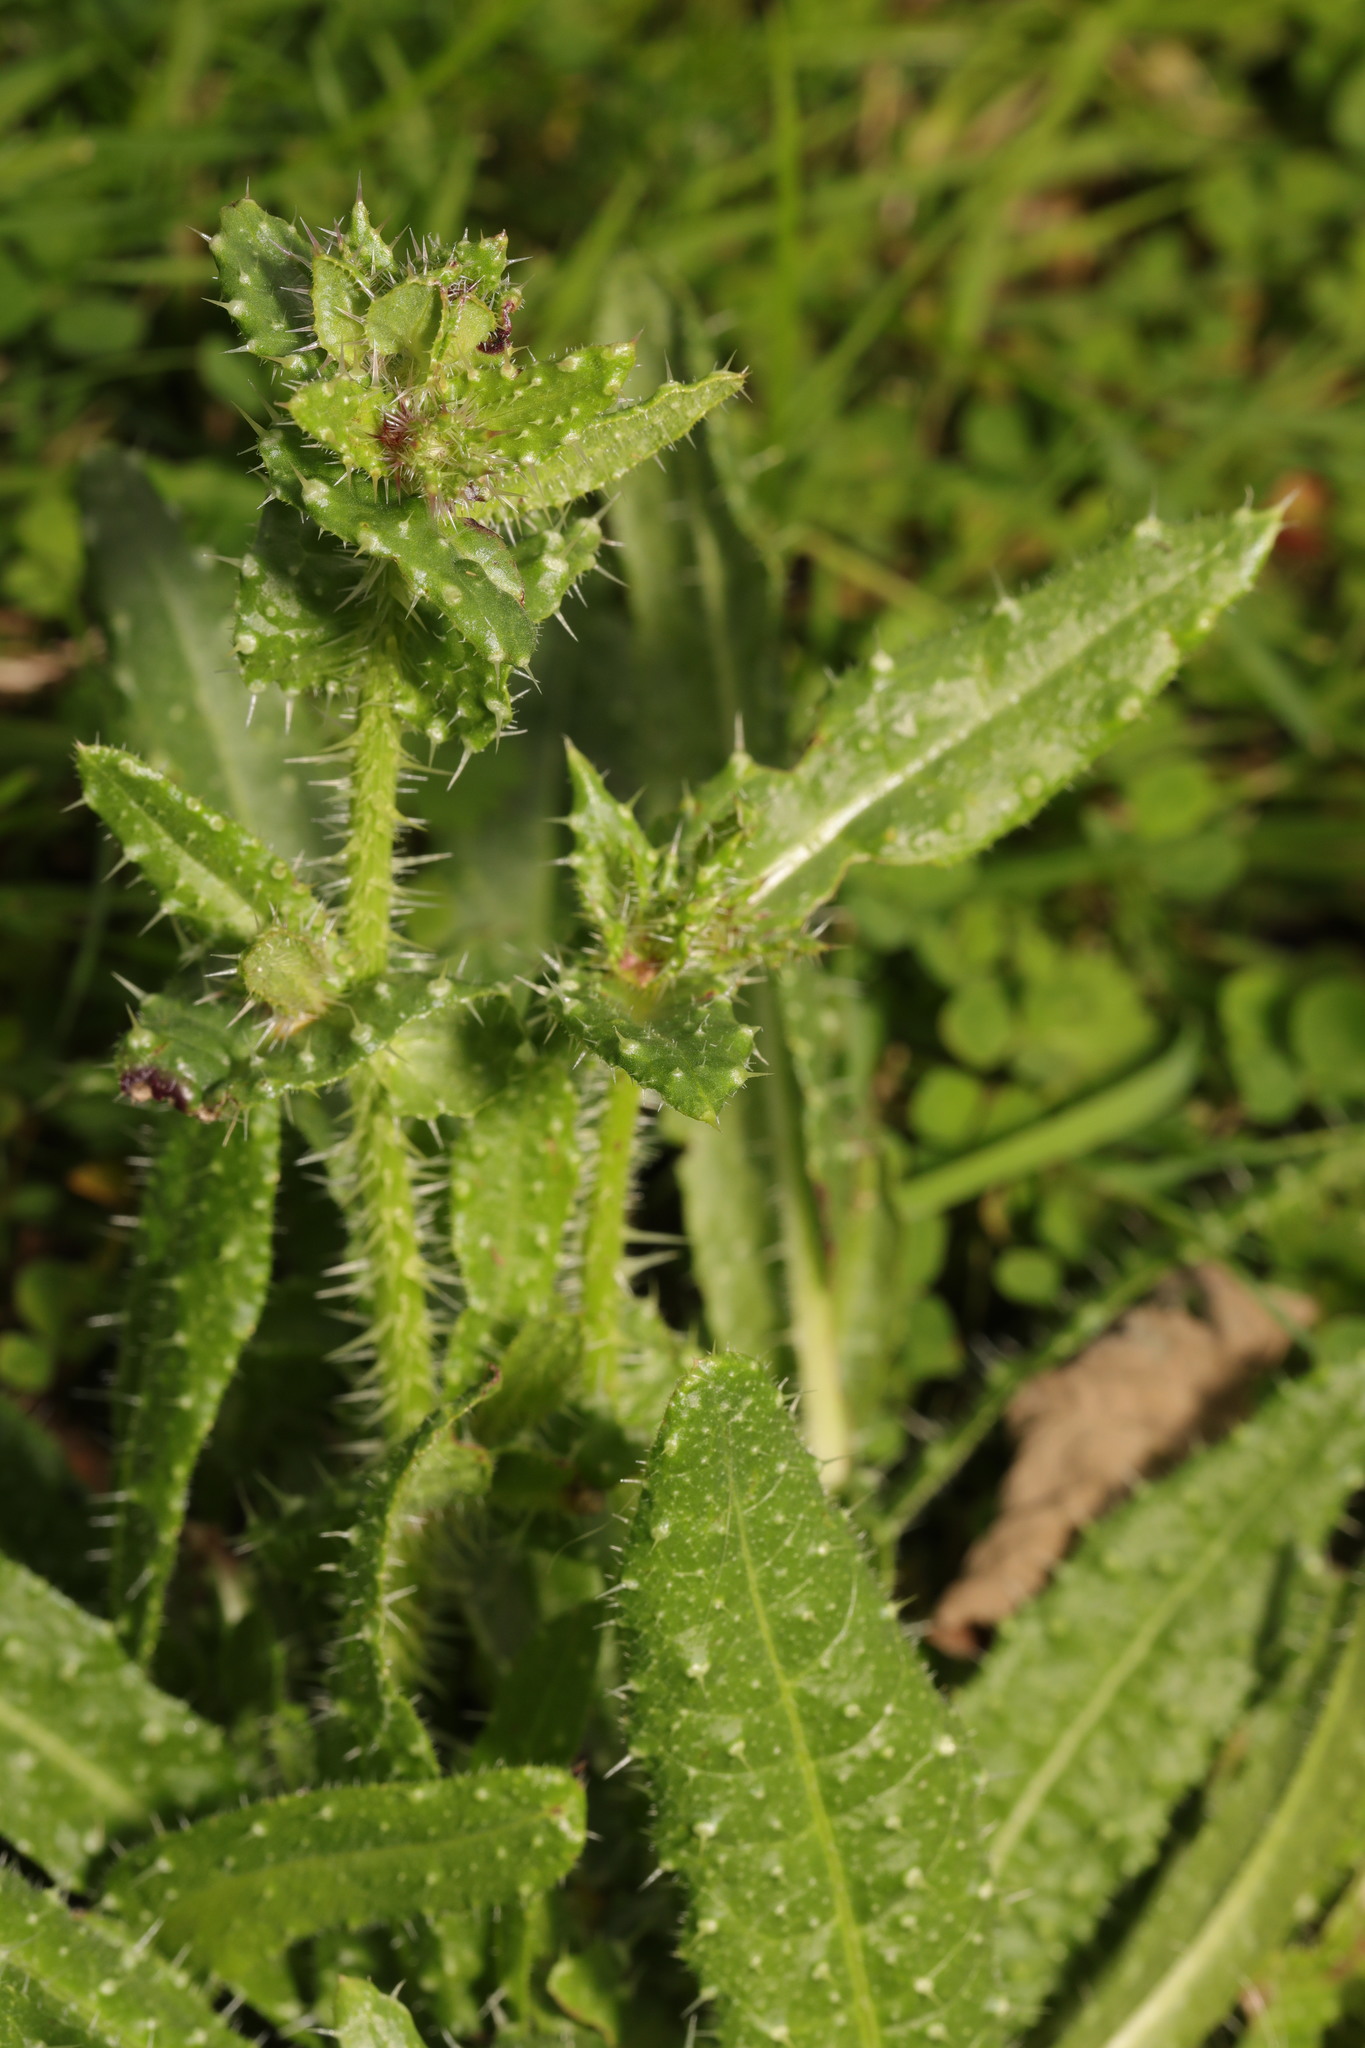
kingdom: Plantae
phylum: Tracheophyta
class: Magnoliopsida
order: Asterales
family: Asteraceae
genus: Helminthotheca
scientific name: Helminthotheca echioides
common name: Ox-tongue
